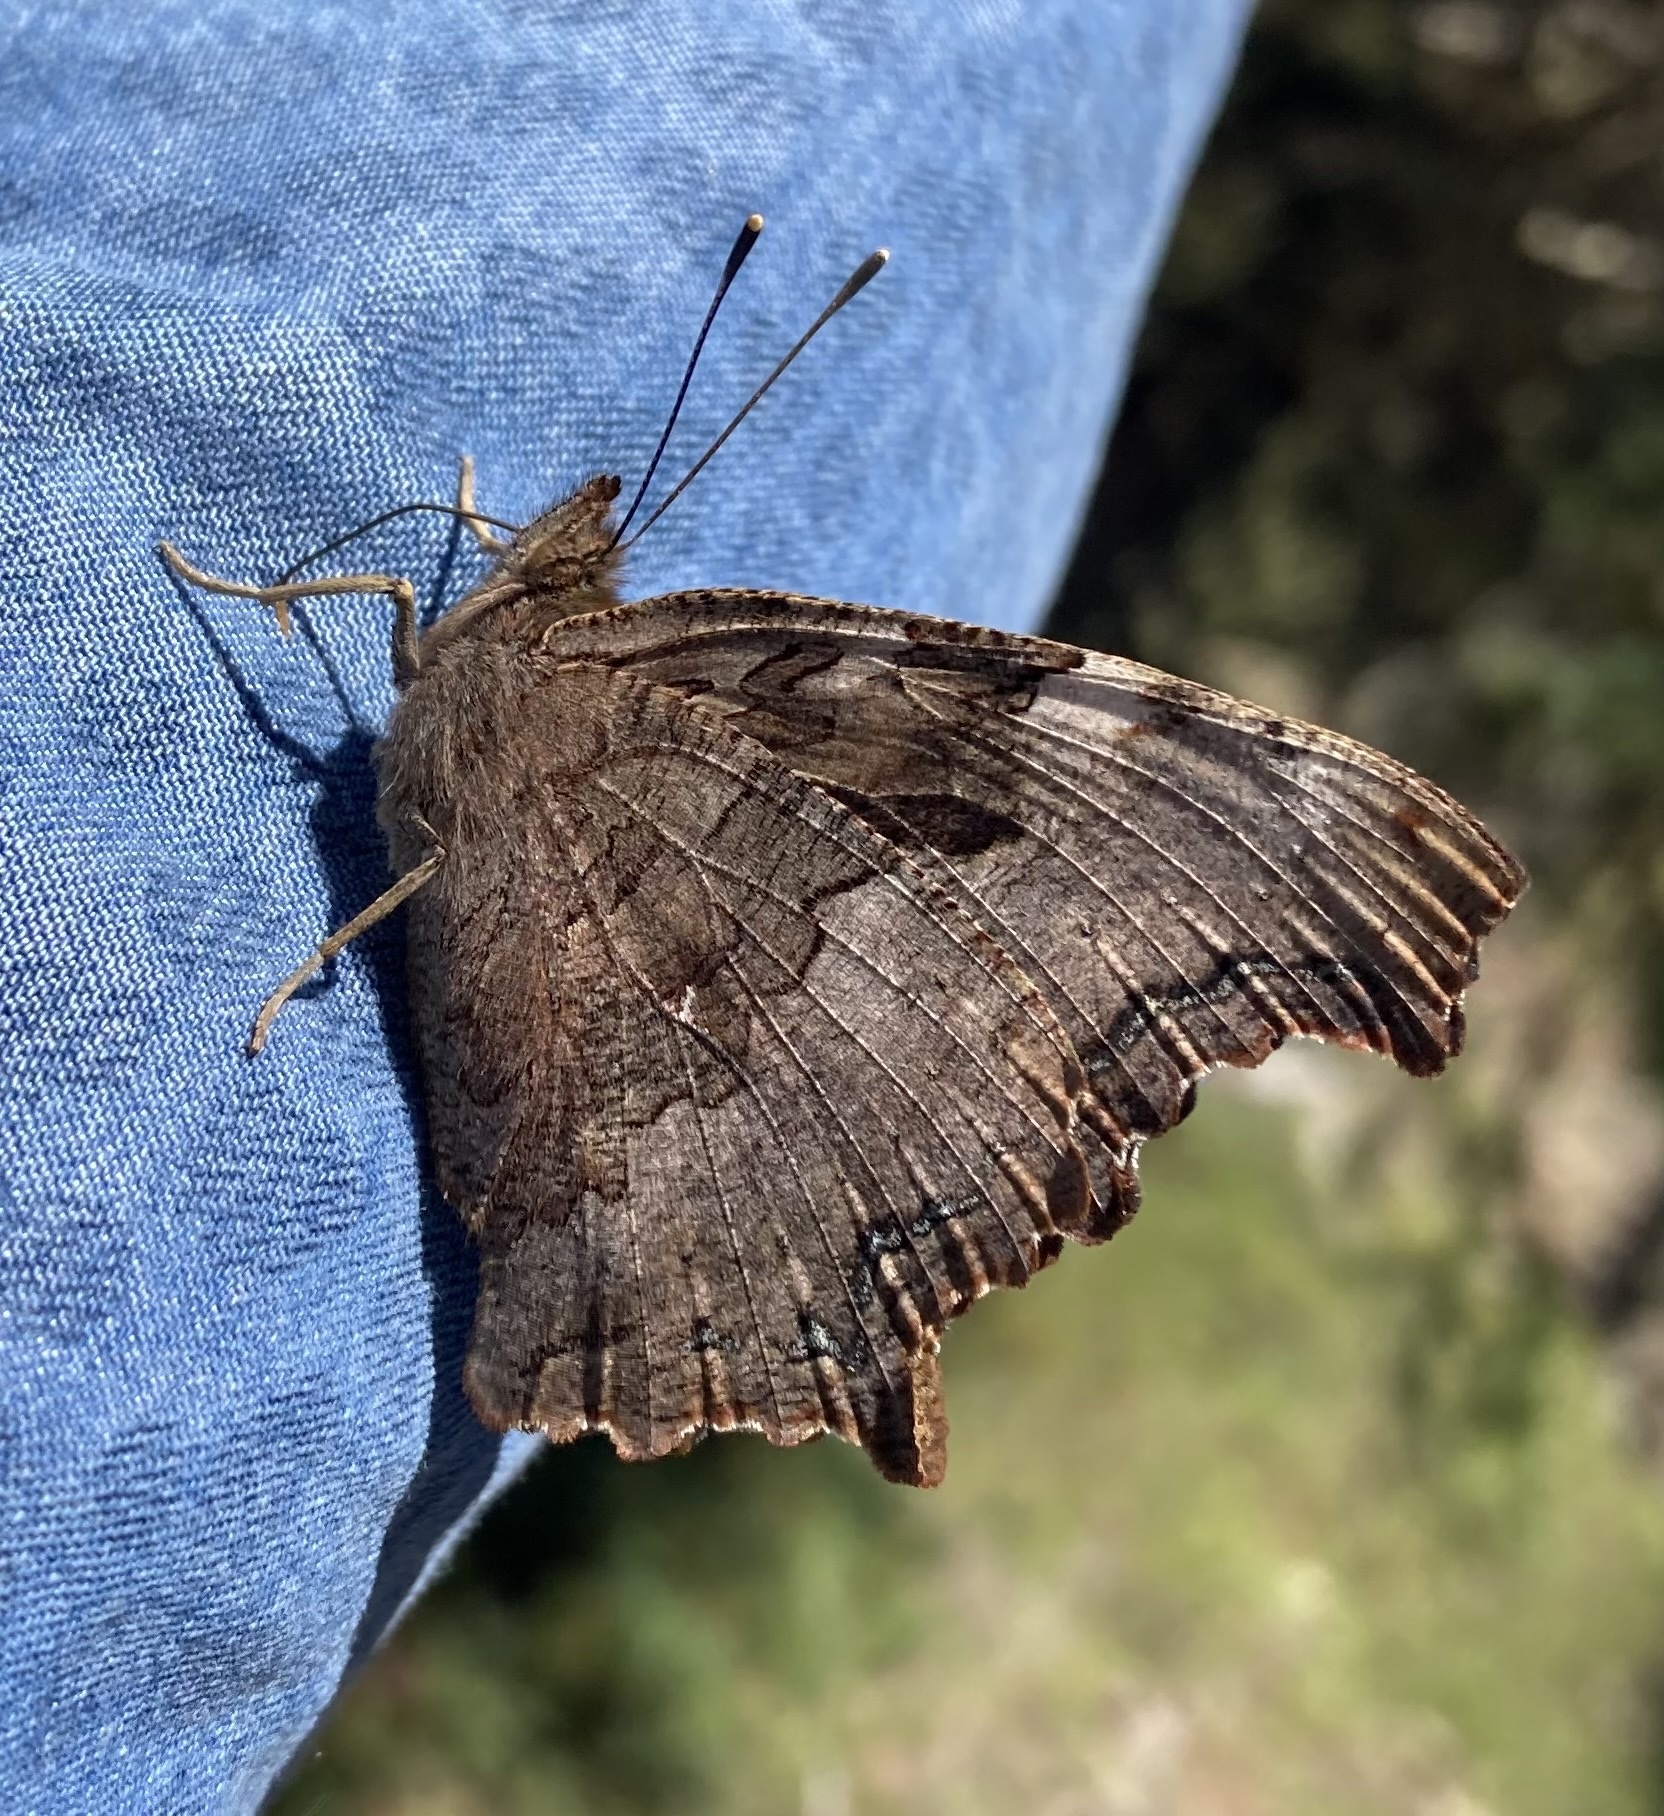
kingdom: Animalia
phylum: Arthropoda
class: Insecta
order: Lepidoptera
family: Nymphalidae
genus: Polygonia
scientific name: Polygonia vaualbum
